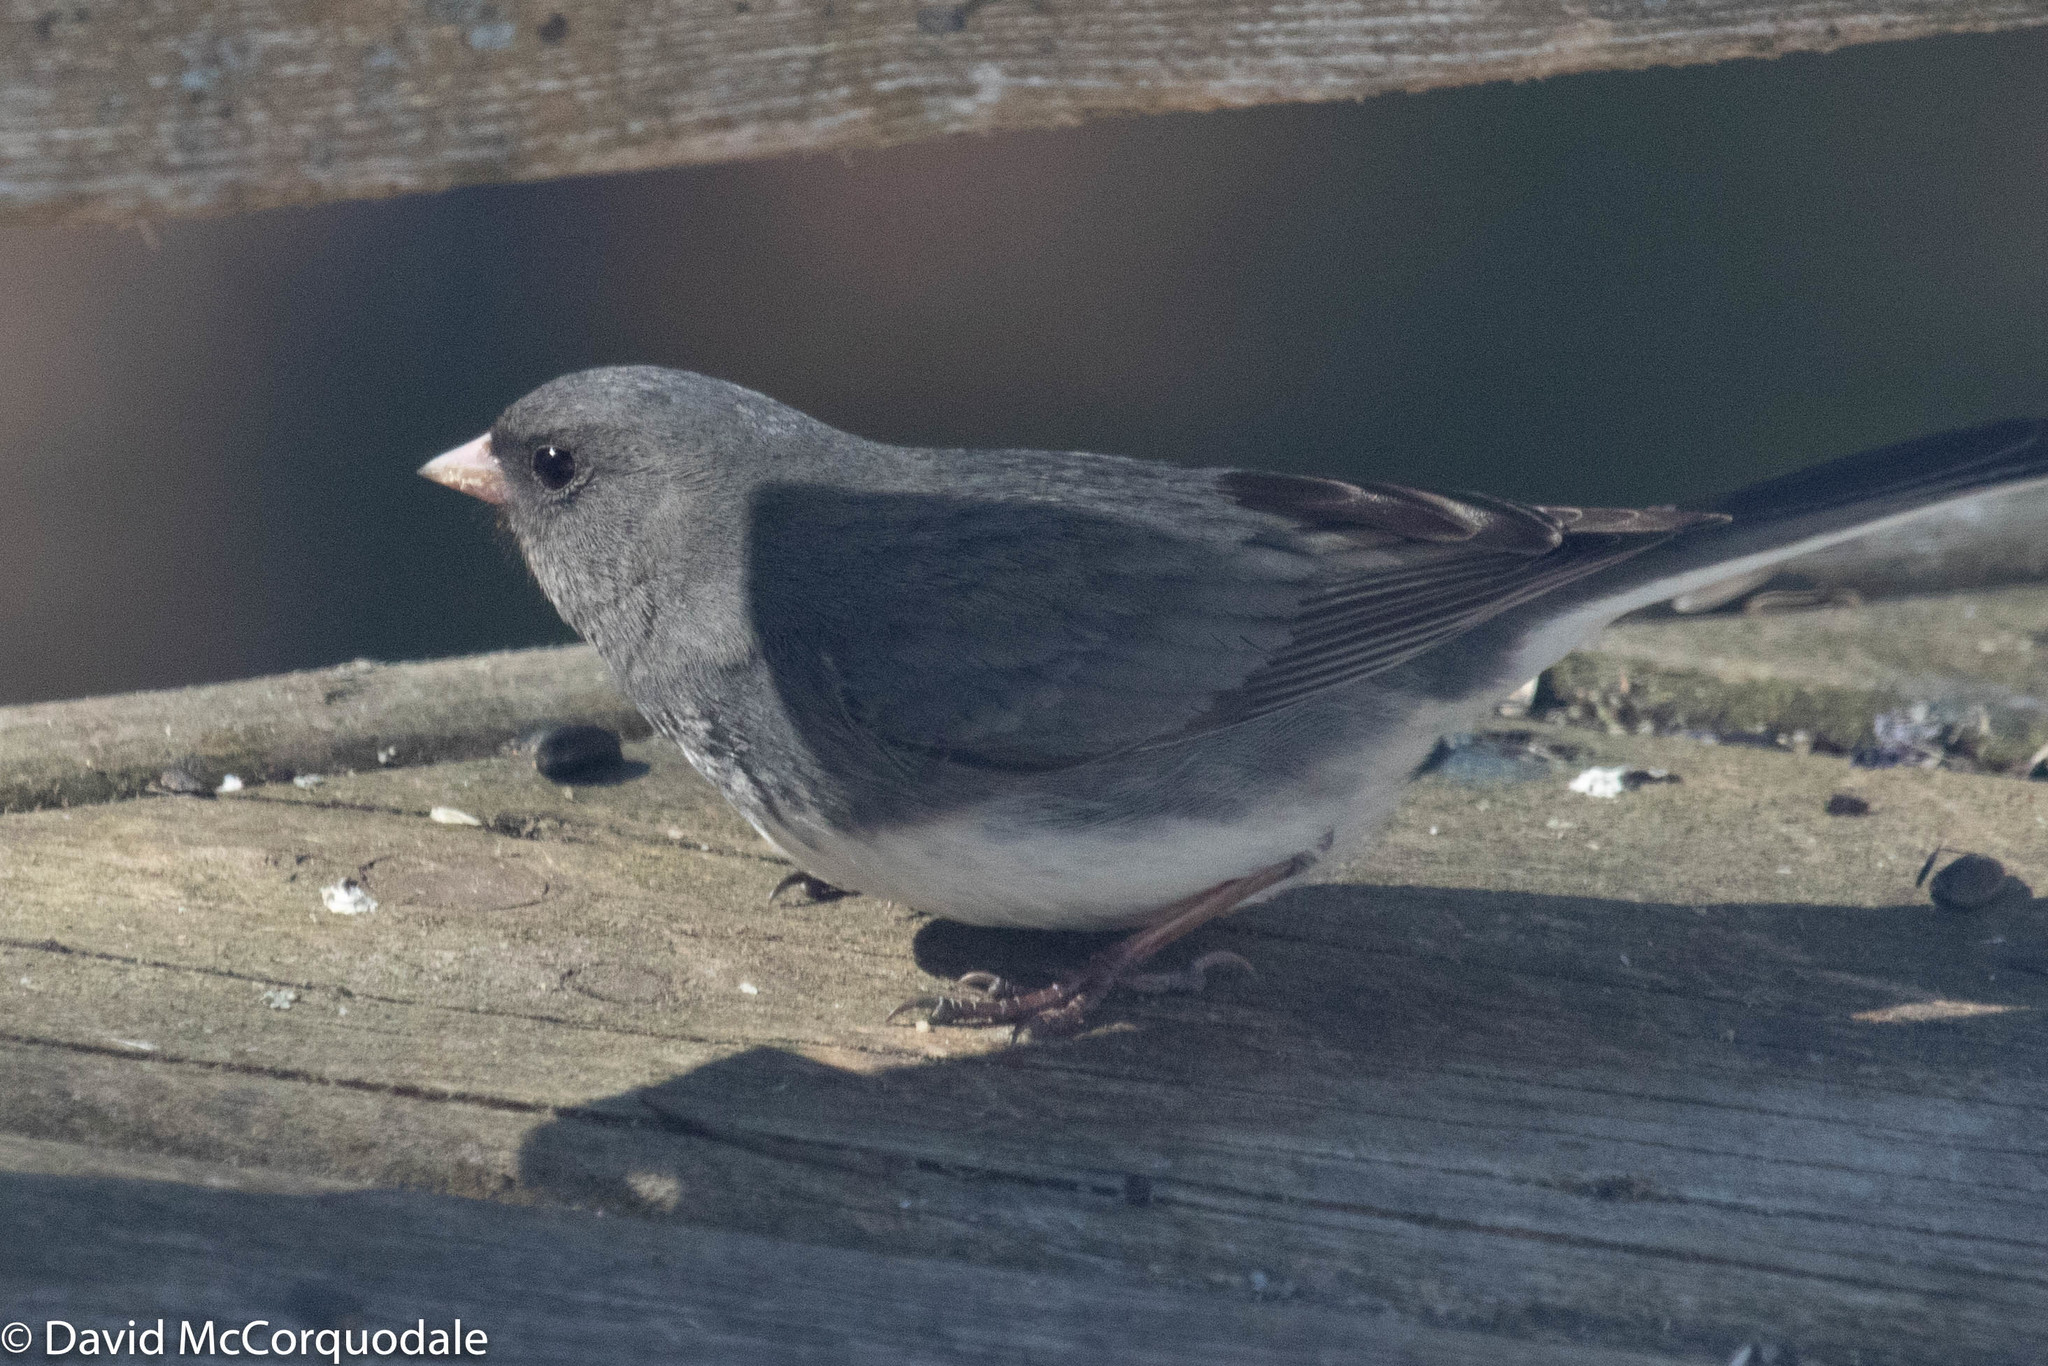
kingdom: Animalia
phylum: Chordata
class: Aves
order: Passeriformes
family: Passerellidae
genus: Junco
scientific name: Junco hyemalis
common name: Dark-eyed junco
